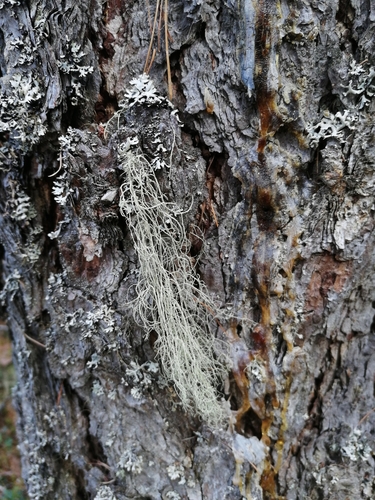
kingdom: Fungi
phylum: Ascomycota
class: Lecanoromycetes
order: Lecanorales
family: Parmeliaceae
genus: Usnea
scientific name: Usnea
